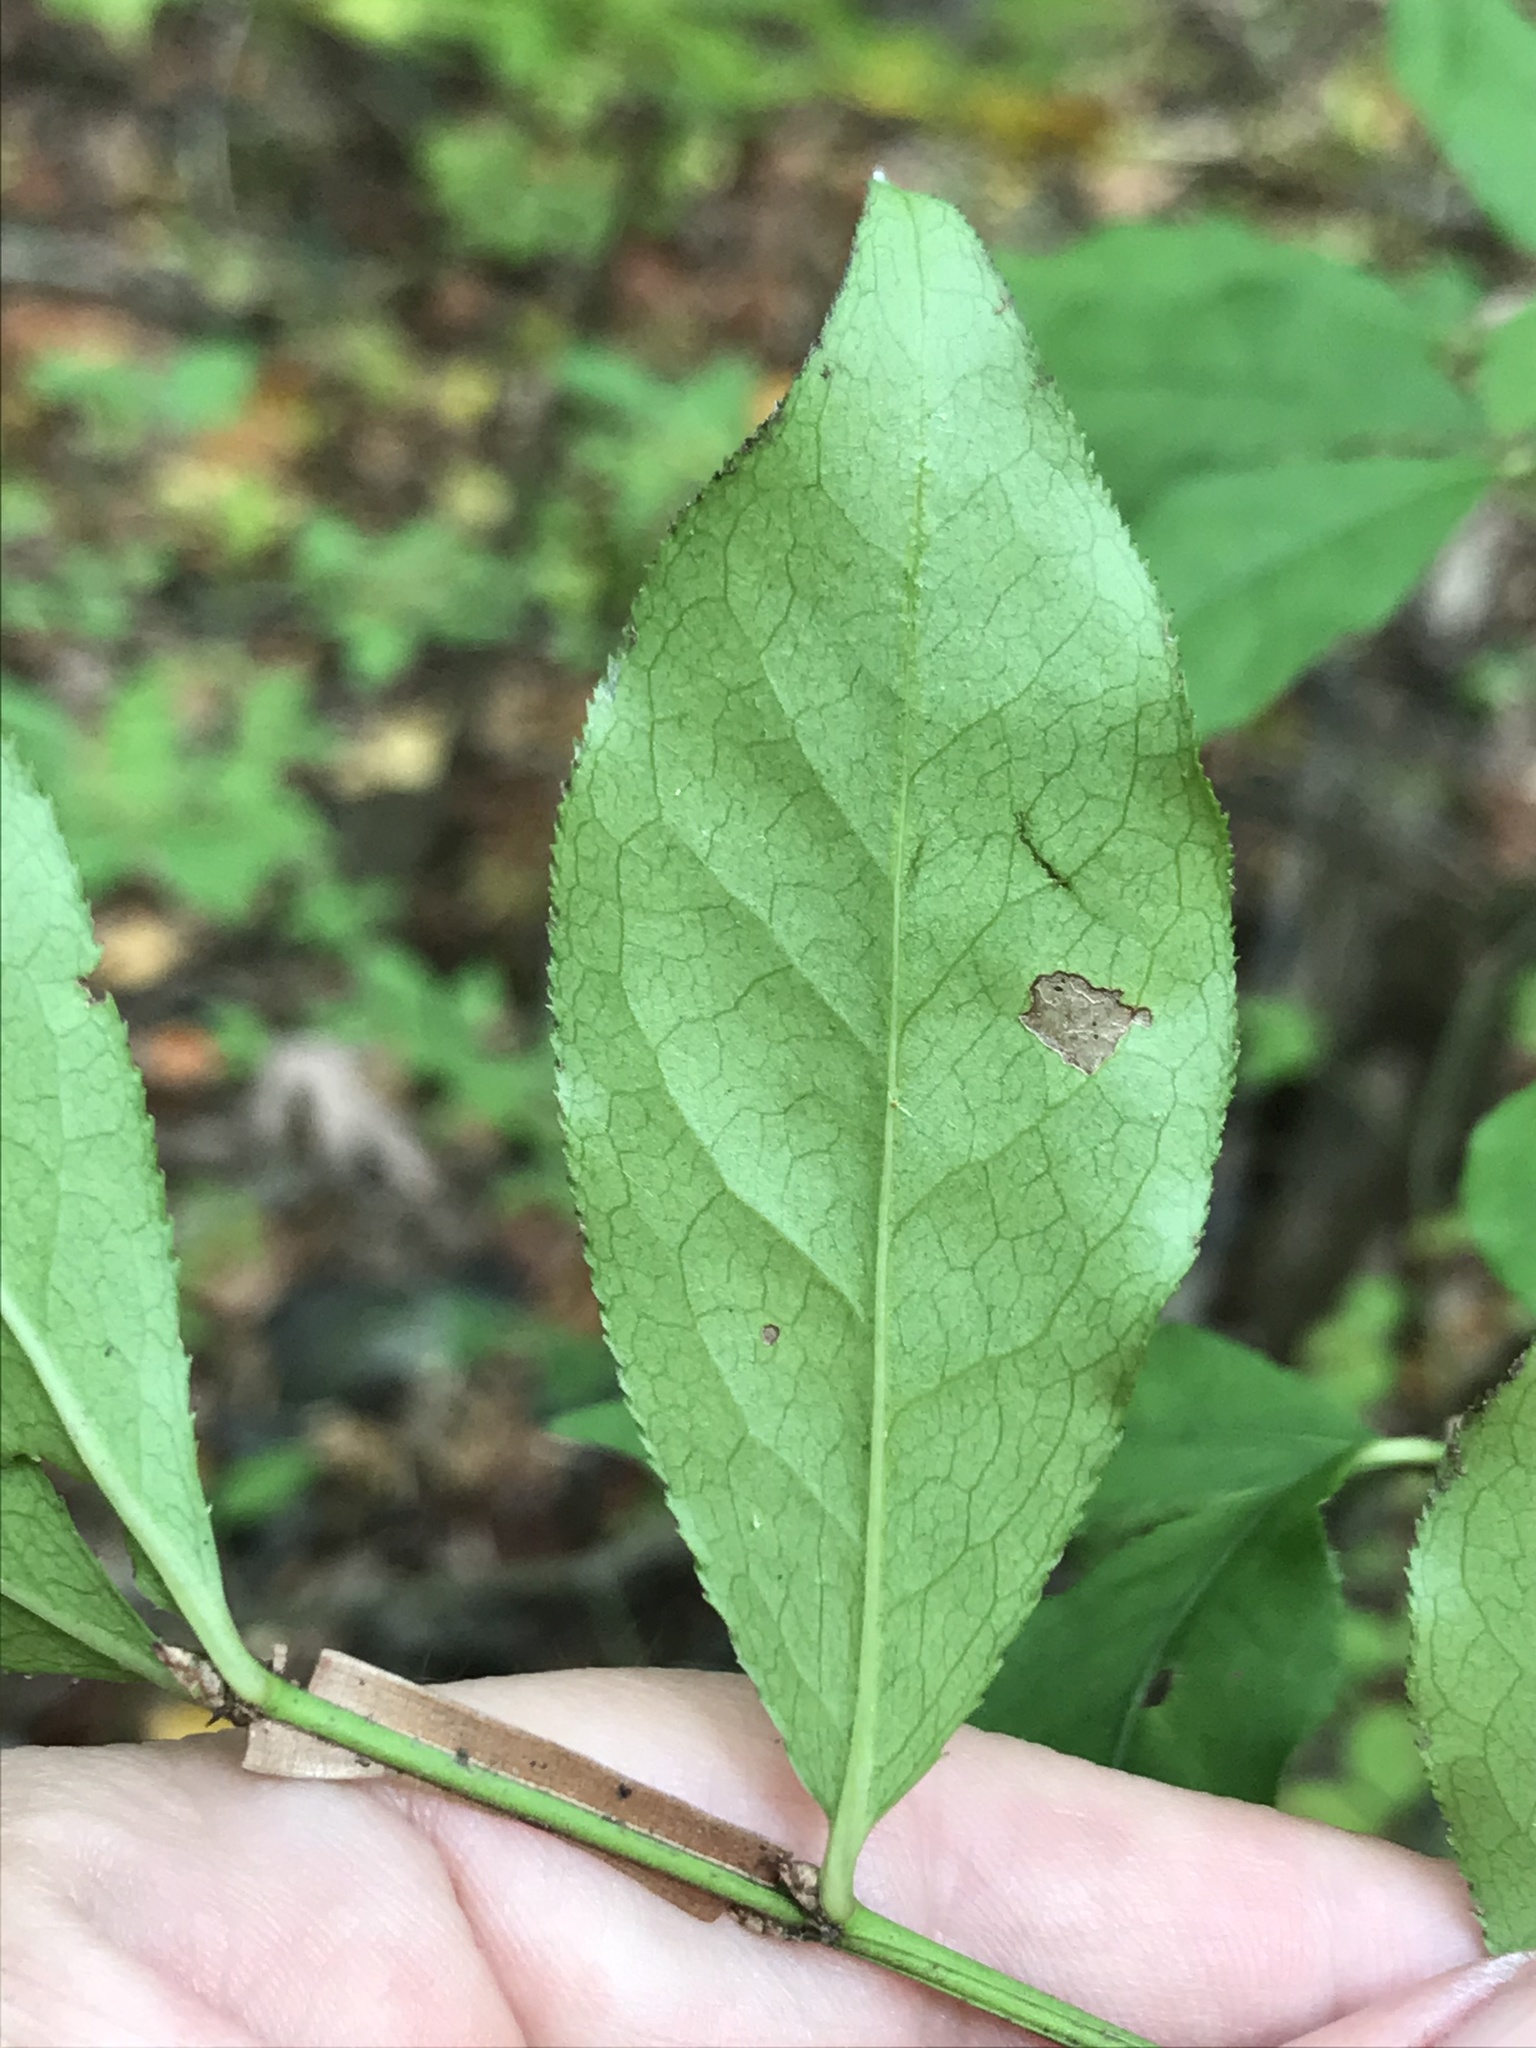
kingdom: Plantae
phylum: Tracheophyta
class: Magnoliopsida
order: Celastrales
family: Celastraceae
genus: Euonymus
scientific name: Euonymus alatus
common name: Winged euonymus
